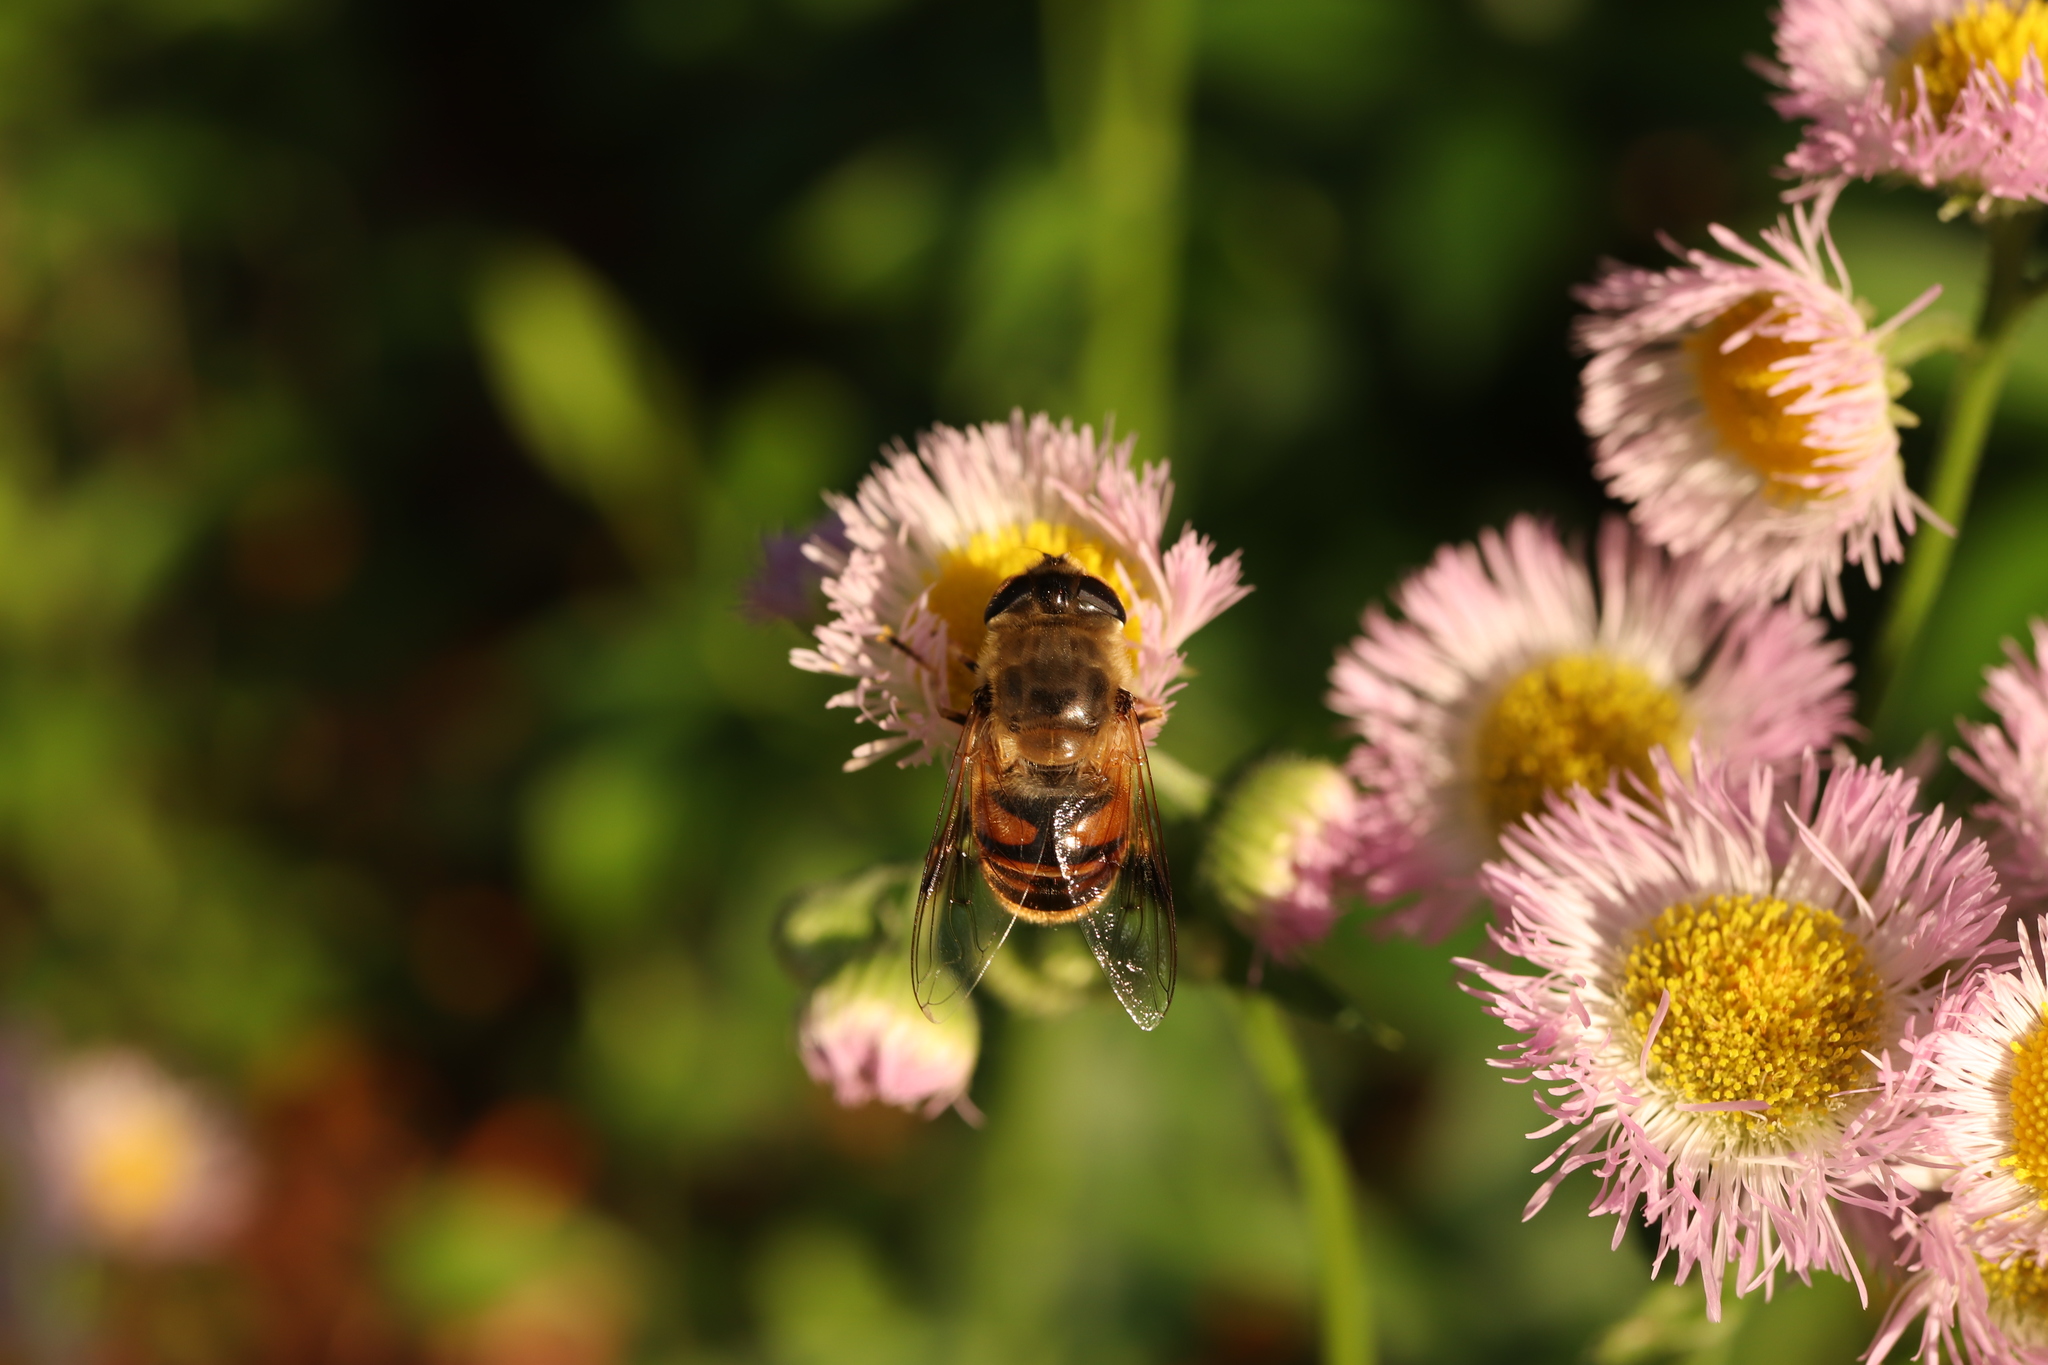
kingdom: Animalia
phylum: Arthropoda
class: Insecta
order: Diptera
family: Syrphidae
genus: Eristalis
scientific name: Eristalis tenax
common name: Drone fly
